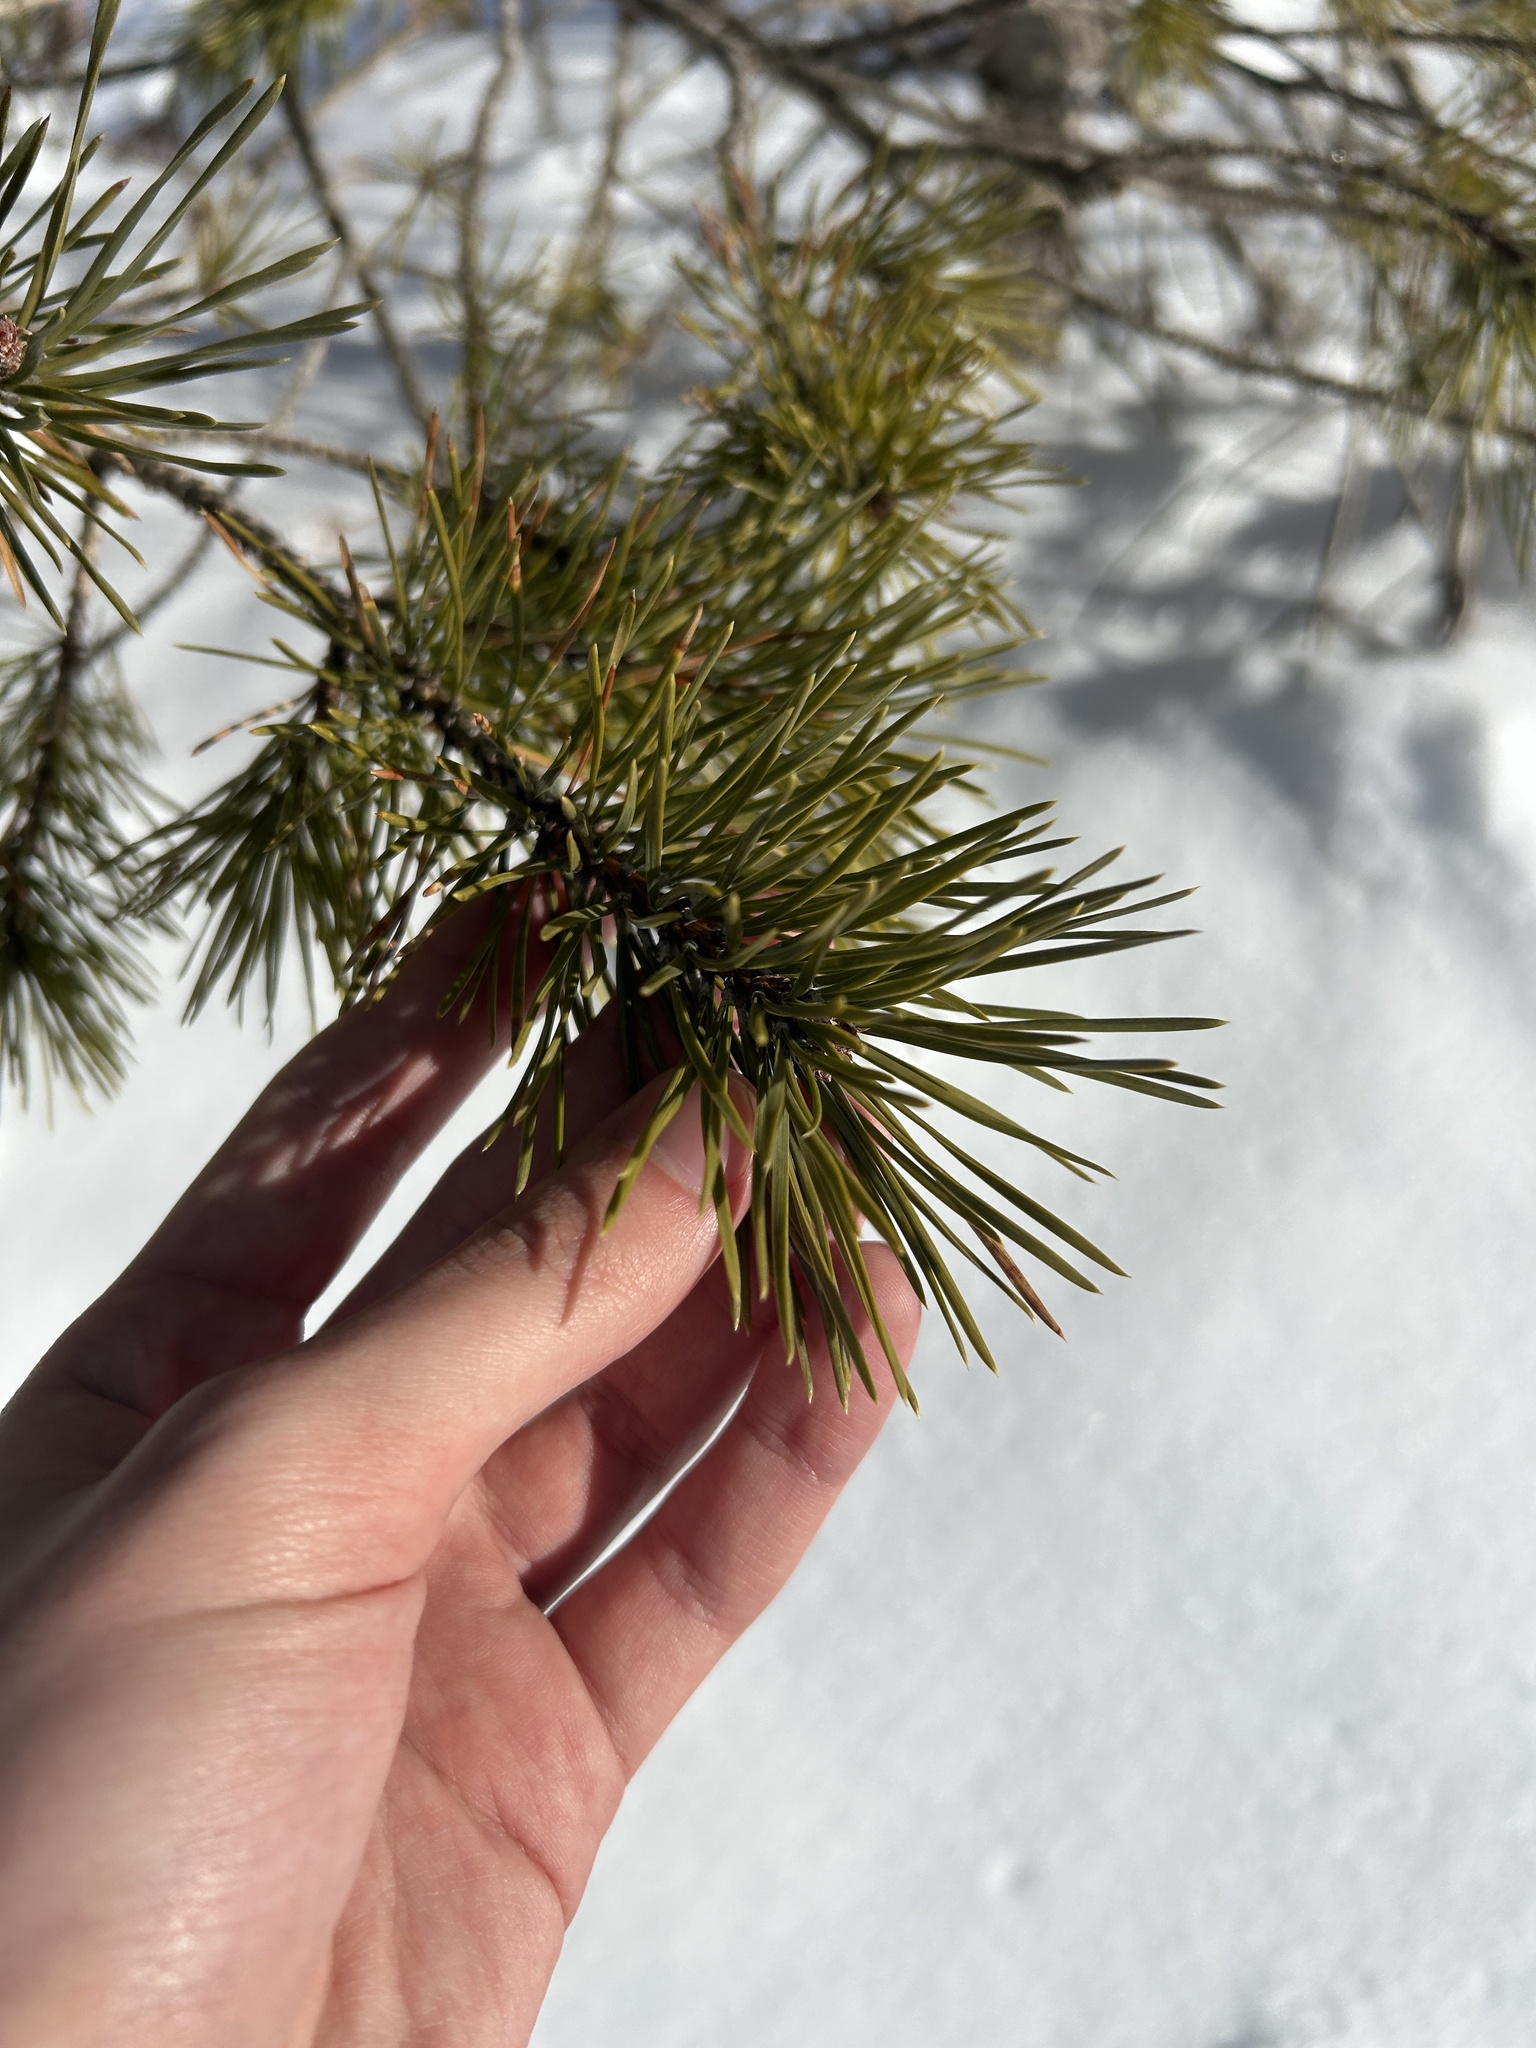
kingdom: Plantae
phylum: Tracheophyta
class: Pinopsida
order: Pinales
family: Pinaceae
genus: Pinus
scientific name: Pinus sylvestris
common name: Scots pine
